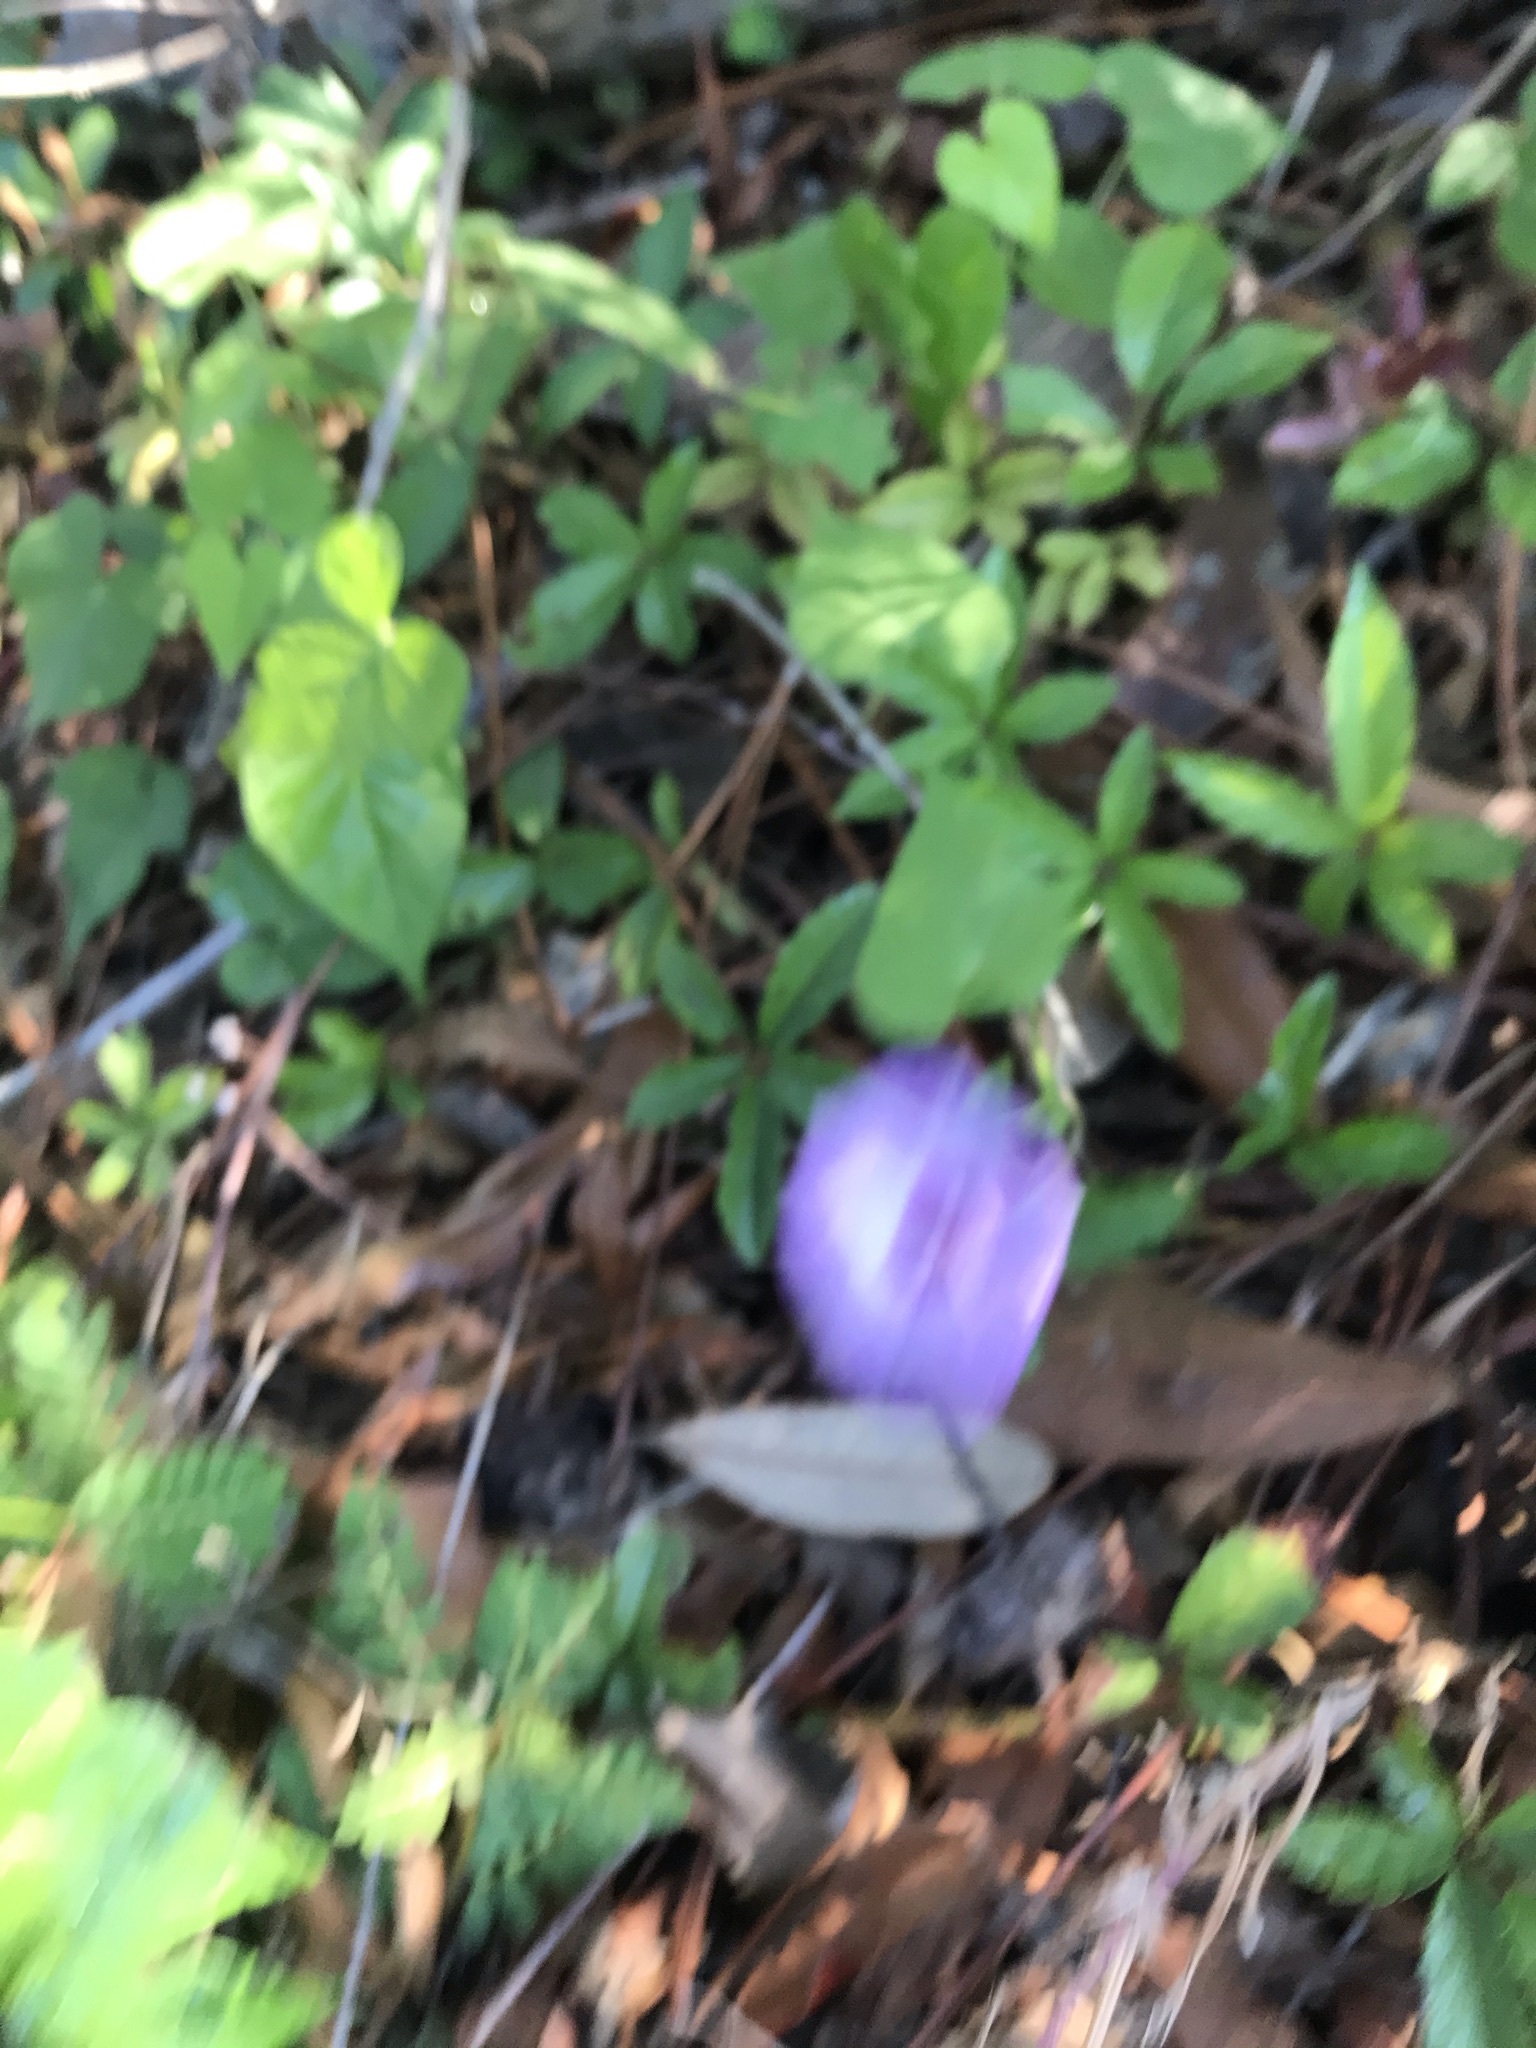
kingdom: Plantae
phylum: Tracheophyta
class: Magnoliopsida
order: Solanales
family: Convolvulaceae
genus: Ipomoea
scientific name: Ipomoea cordatotriloba
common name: Cotton morning glory
